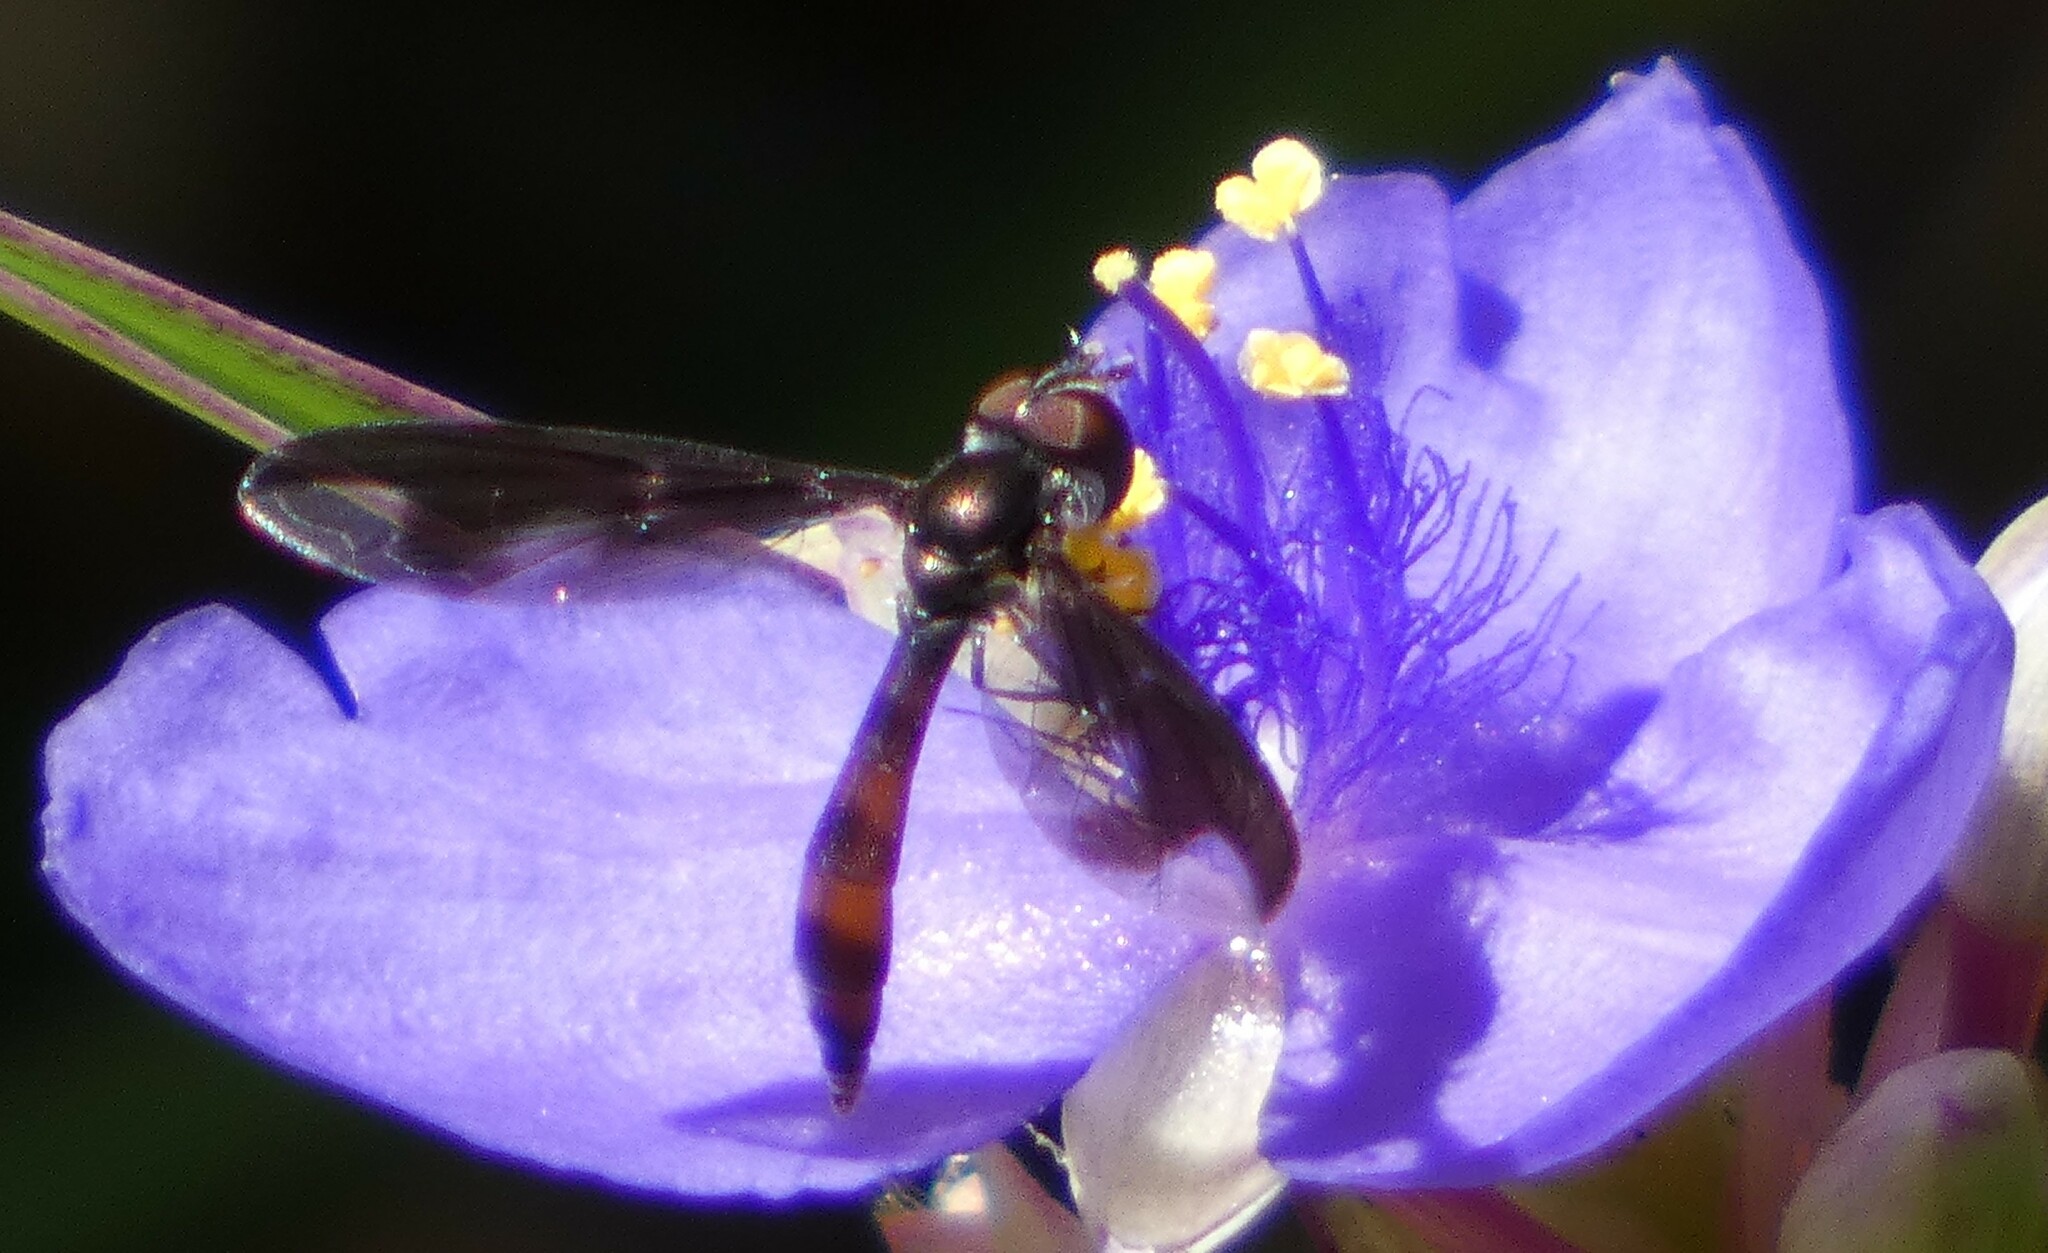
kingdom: Animalia
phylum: Arthropoda
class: Insecta
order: Diptera
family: Syrphidae
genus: Ocyptamus
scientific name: Ocyptamus fuscipennis
